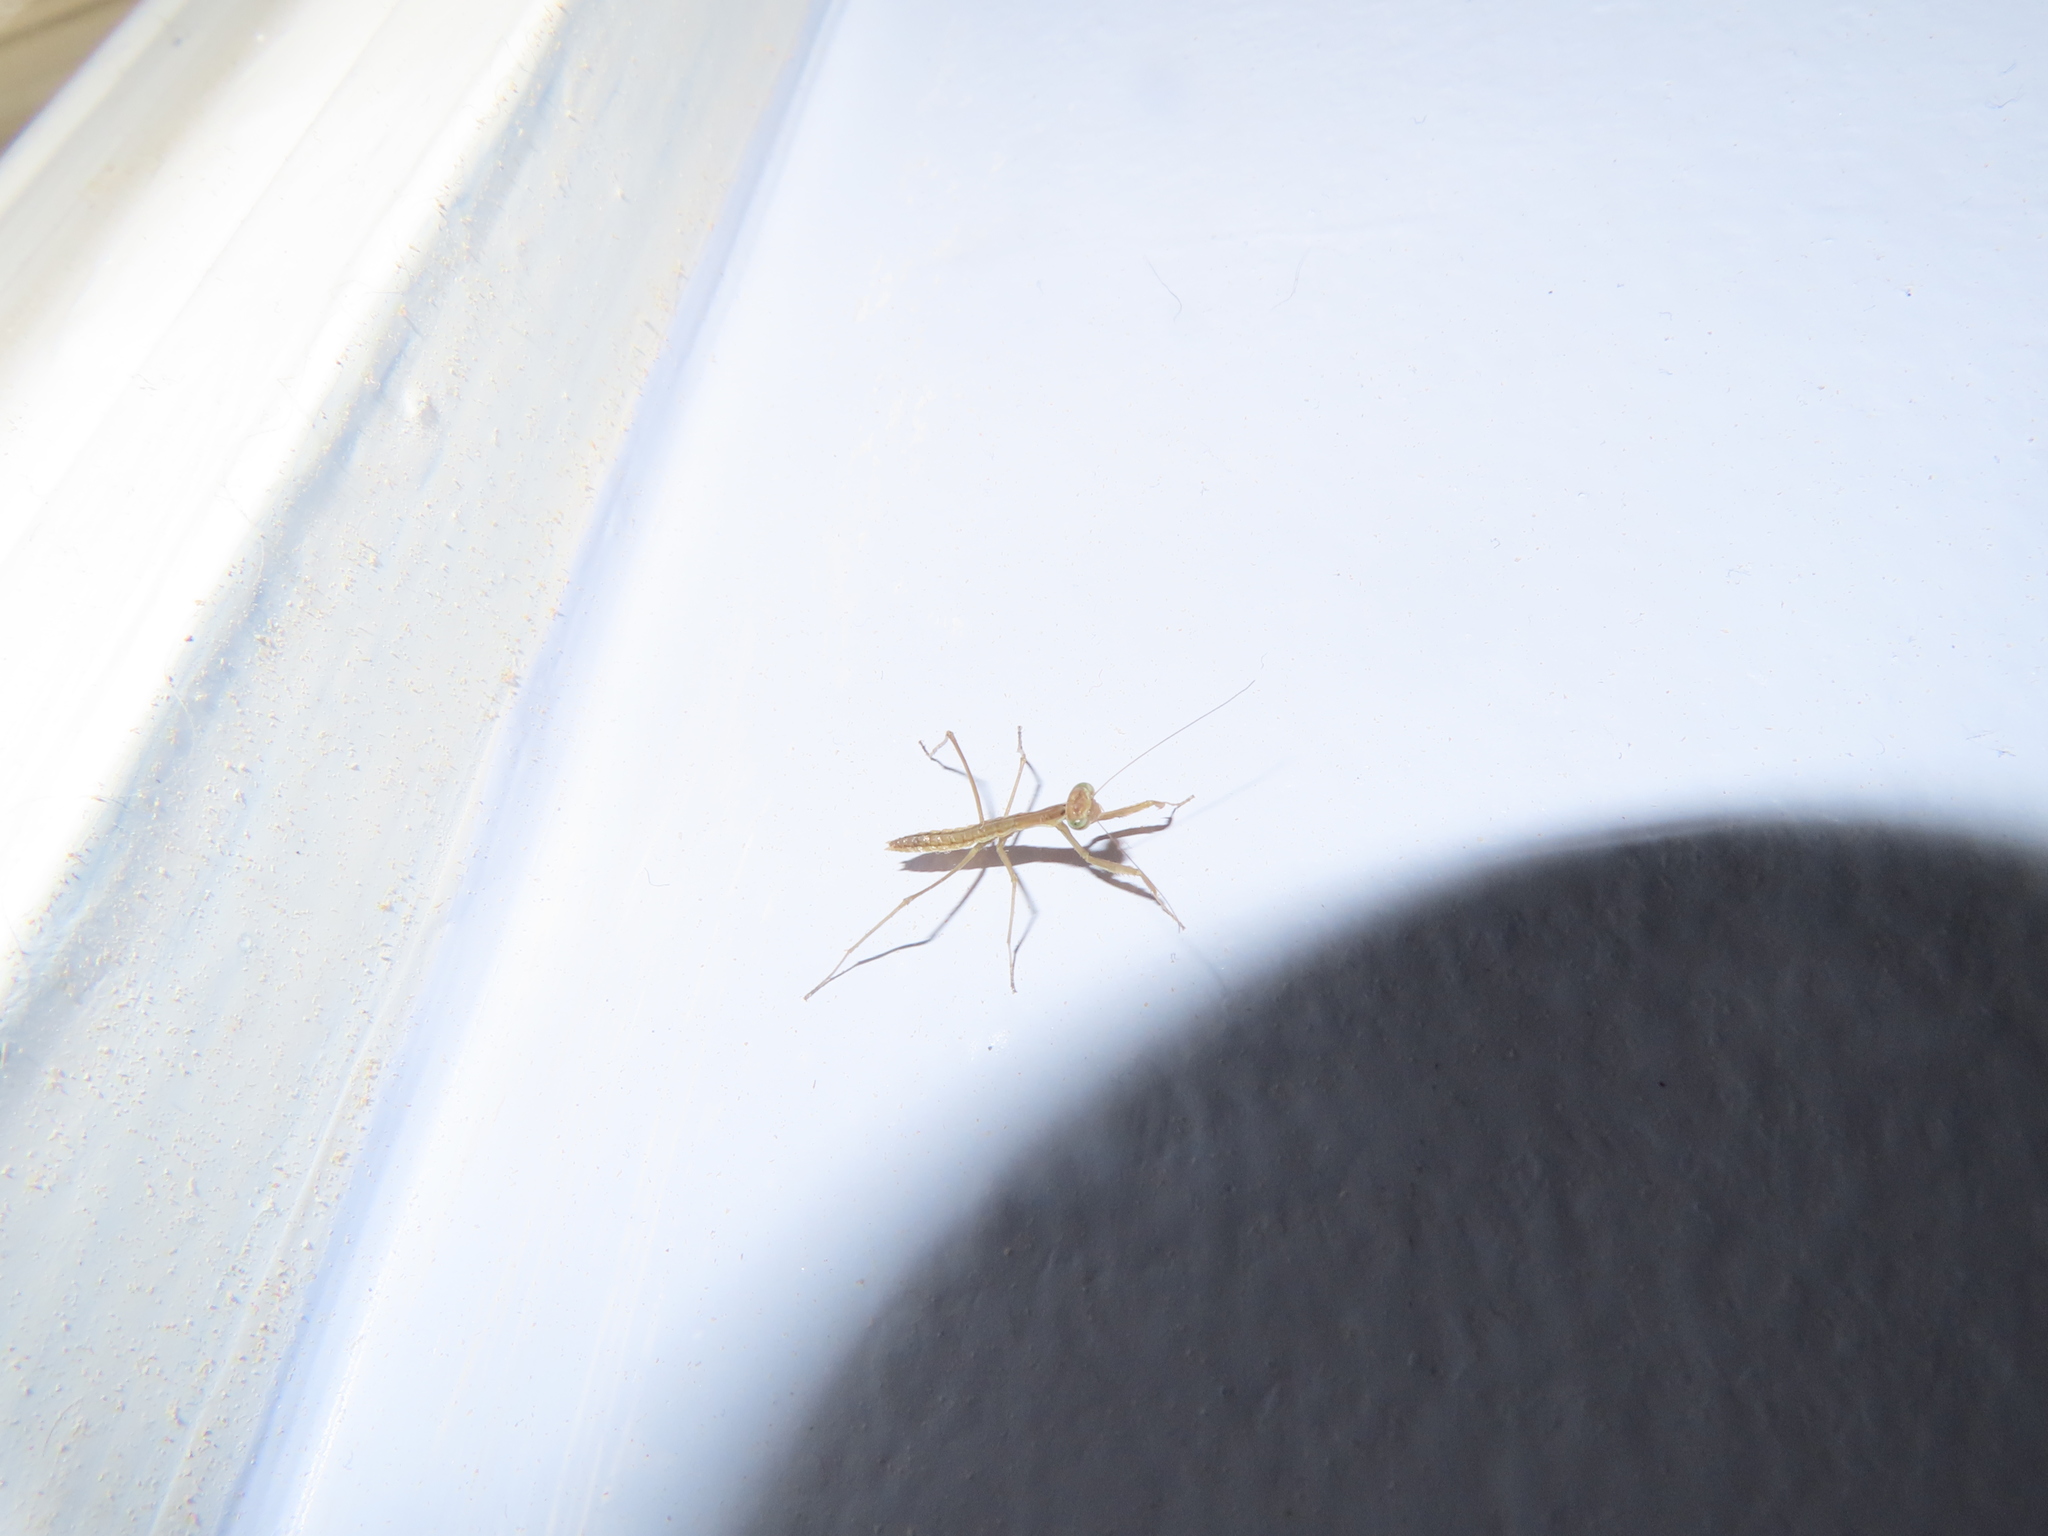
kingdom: Animalia
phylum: Arthropoda
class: Insecta
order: Mantodea
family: Mantidae
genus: Tenodera
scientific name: Tenodera sinensis
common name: Chinese mantis
